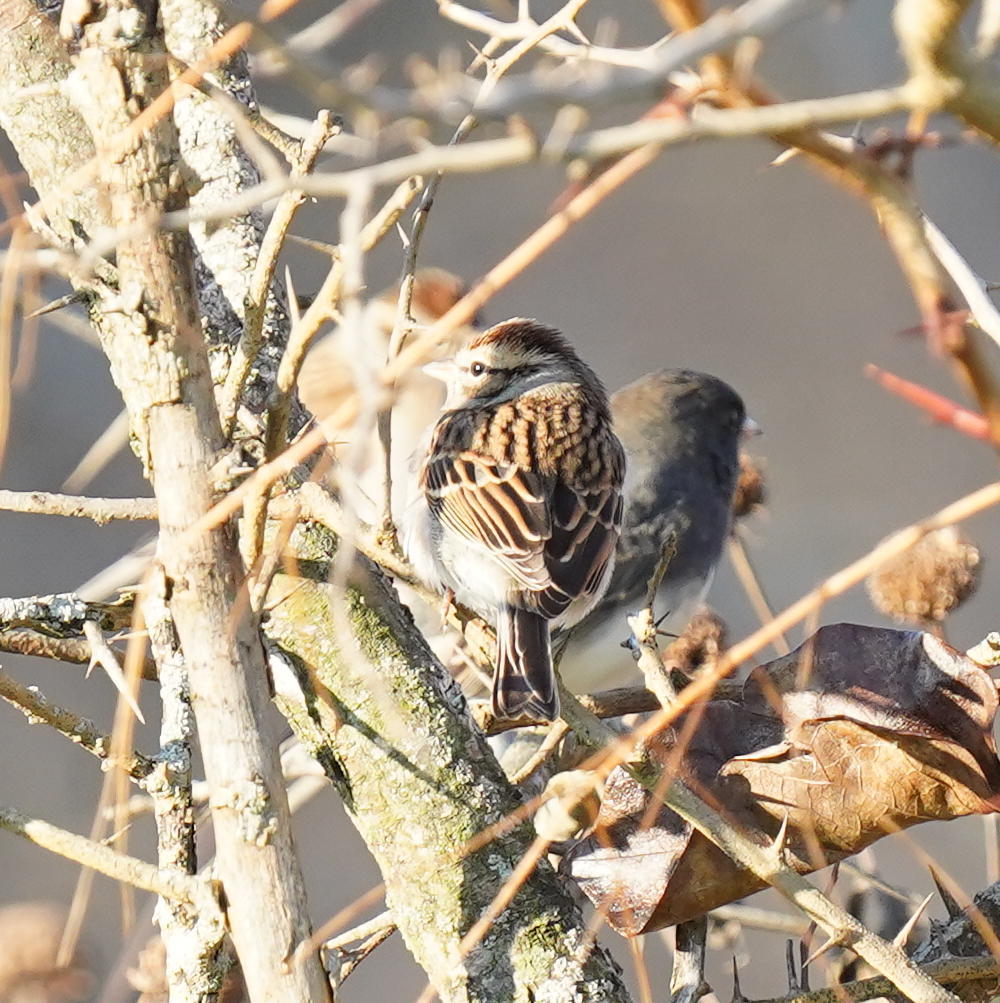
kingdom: Animalia
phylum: Chordata
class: Aves
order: Passeriformes
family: Passerellidae
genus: Spizella
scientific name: Spizella passerina
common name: Chipping sparrow
